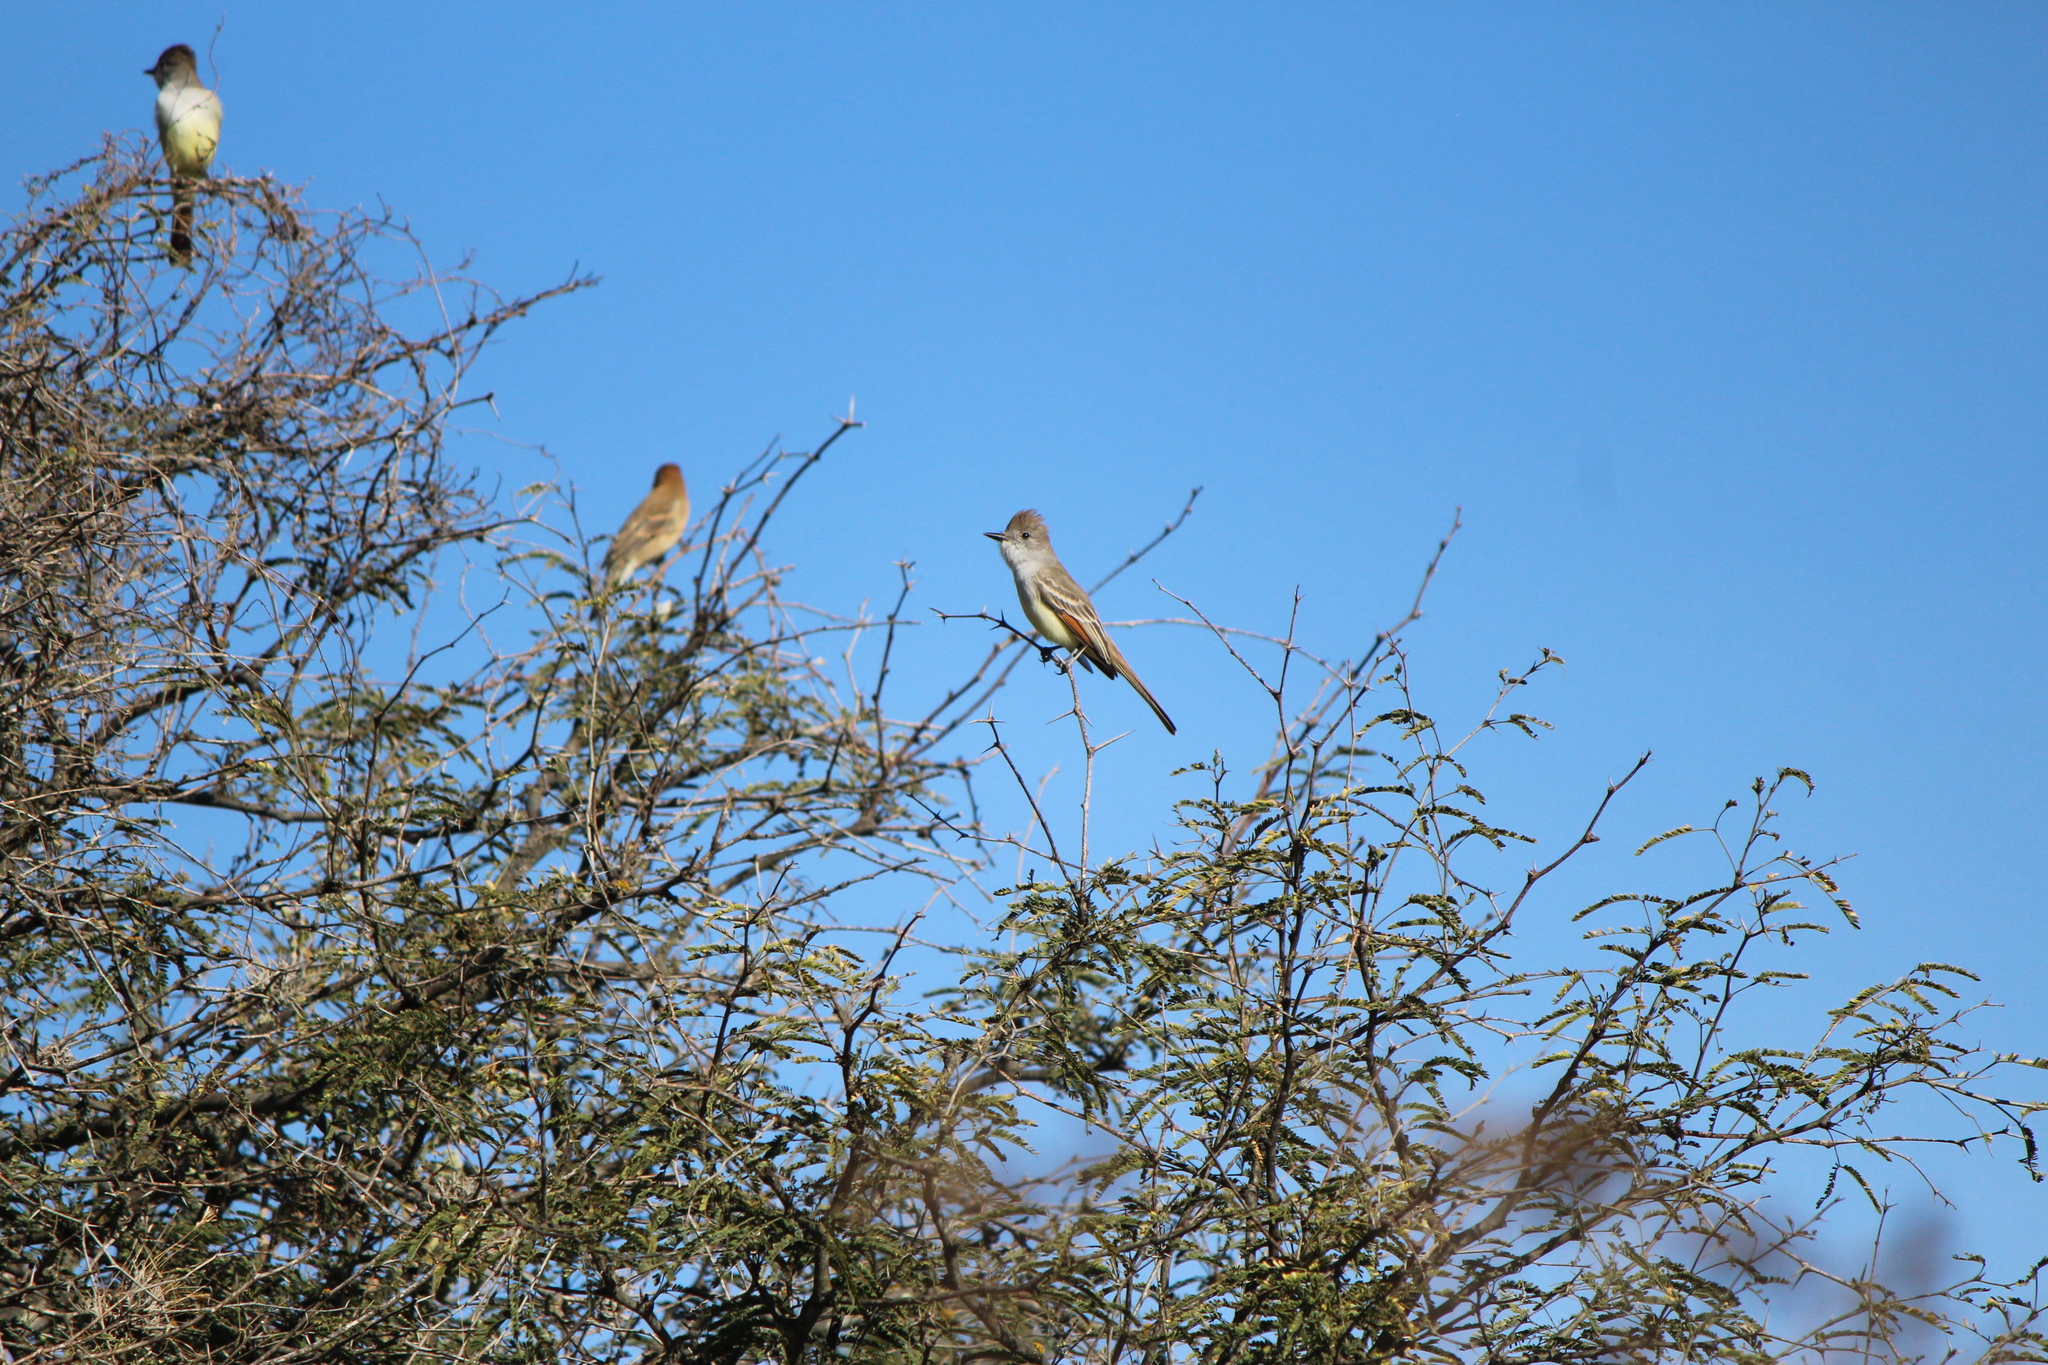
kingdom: Animalia
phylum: Chordata
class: Aves
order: Passeriformes
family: Tyrannidae
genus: Myiarchus
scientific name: Myiarchus cinerascens
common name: Ash-throated flycatcher
